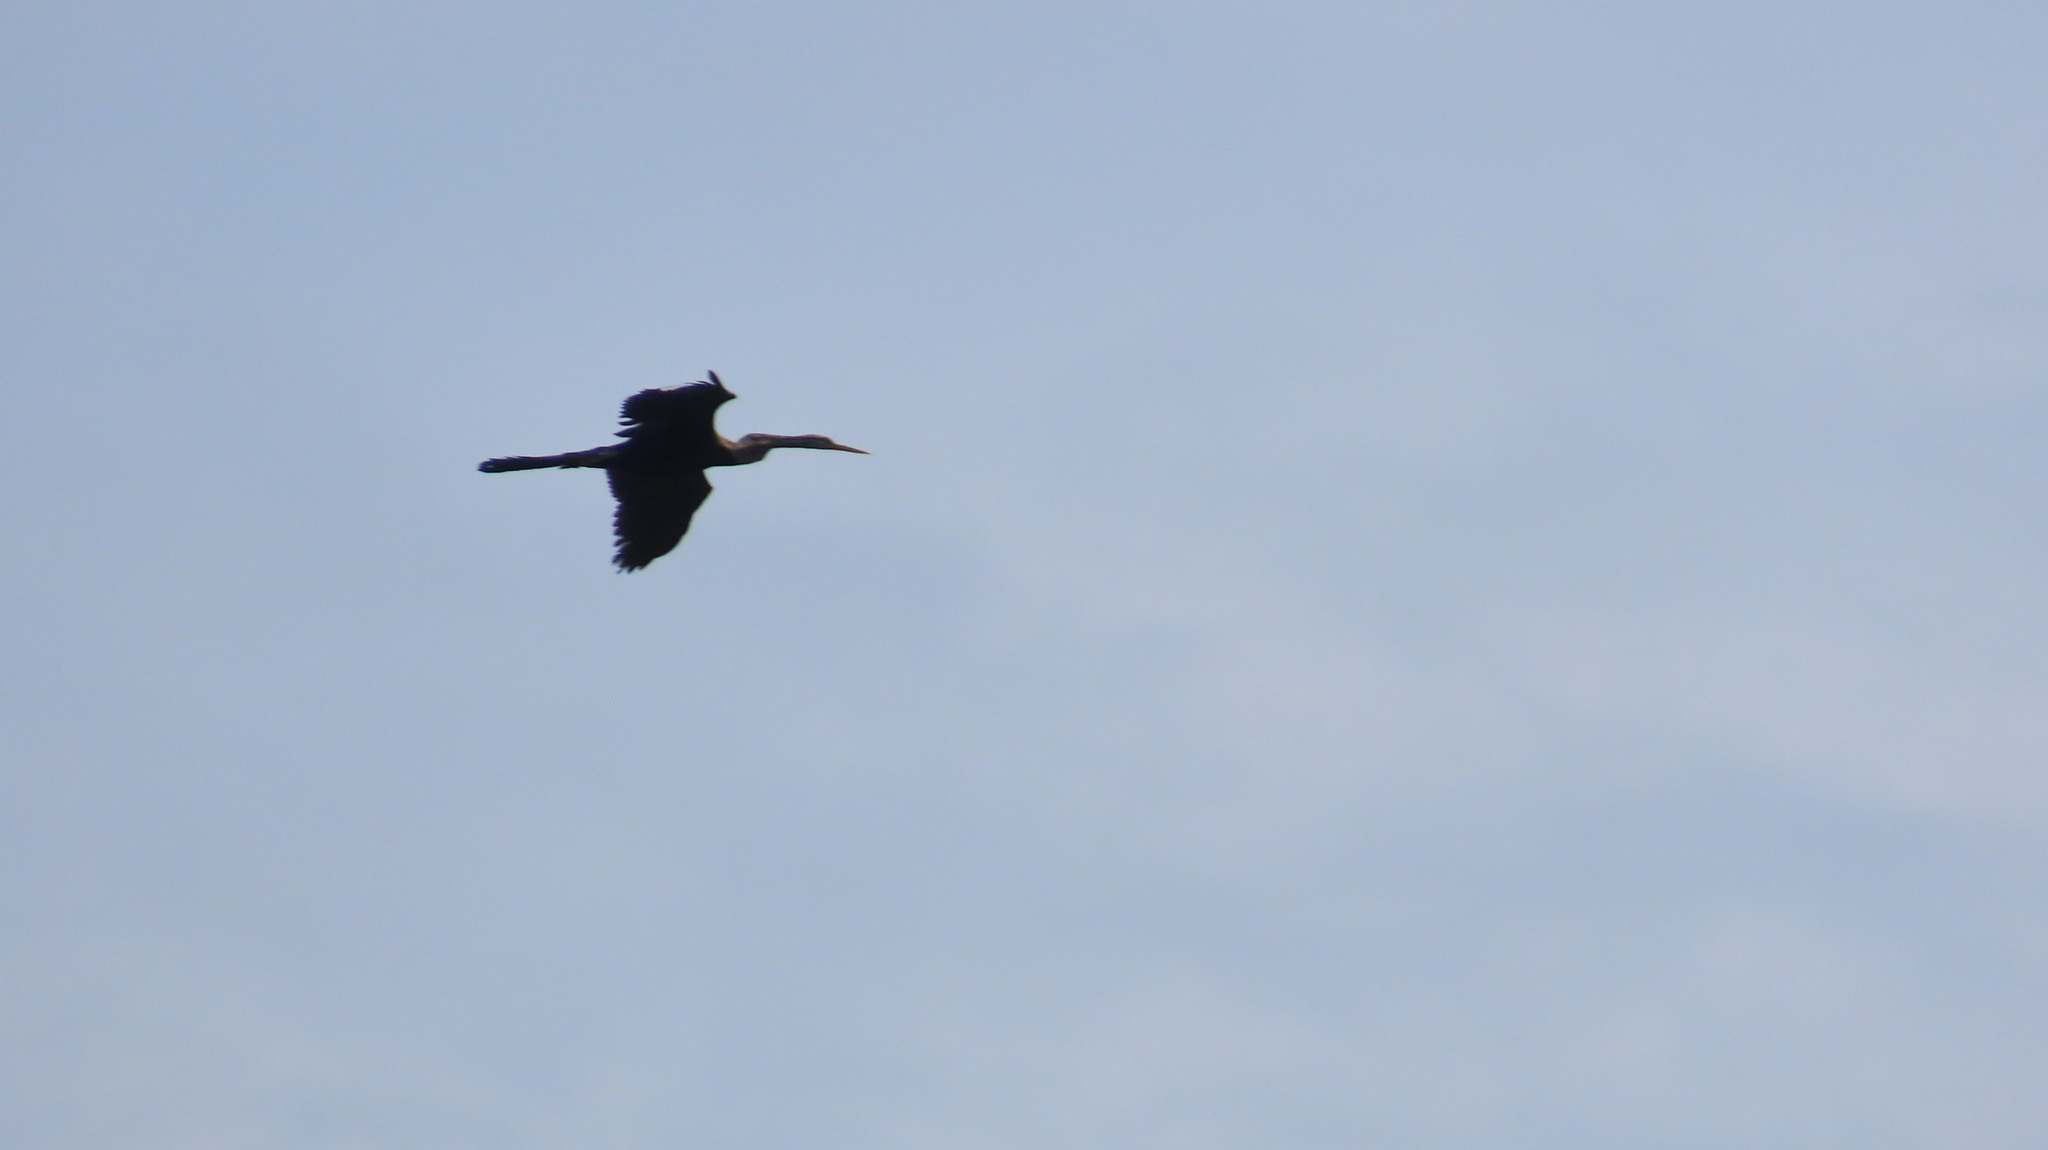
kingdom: Animalia
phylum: Chordata
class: Aves
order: Suliformes
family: Anhingidae
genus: Anhinga
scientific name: Anhinga melanogaster
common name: Oriental darter
